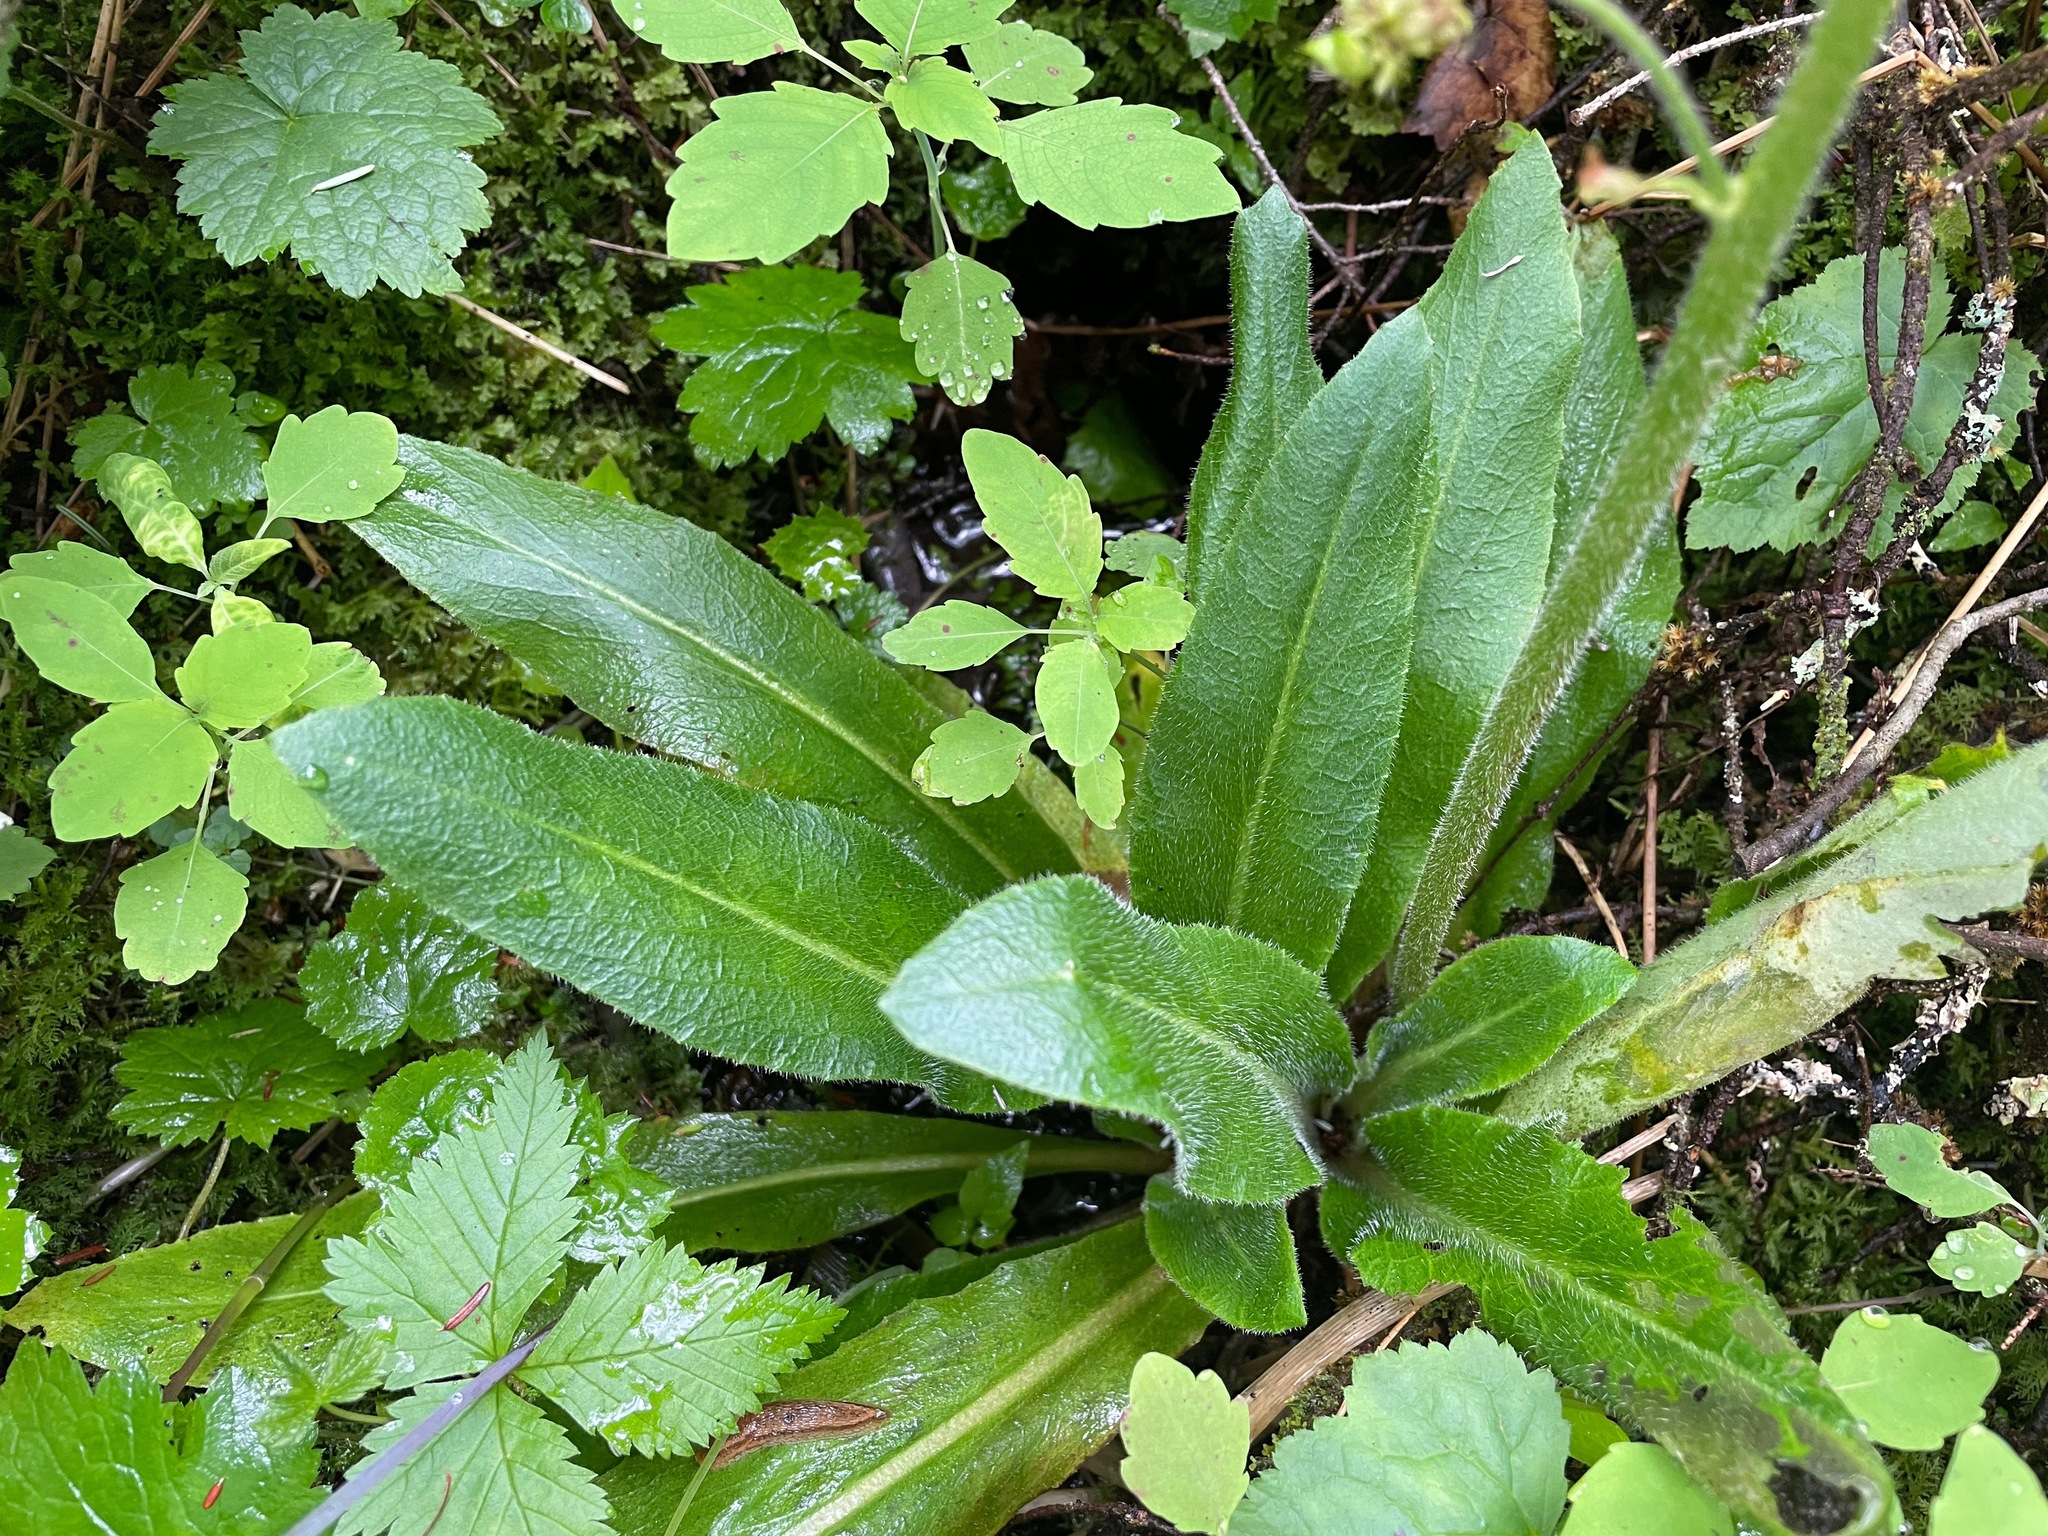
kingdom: Plantae
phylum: Tracheophyta
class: Magnoliopsida
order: Saxifragales
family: Saxifragaceae
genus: Micranthes
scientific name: Micranthes pensylvanica
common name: Marsh saxifrage
